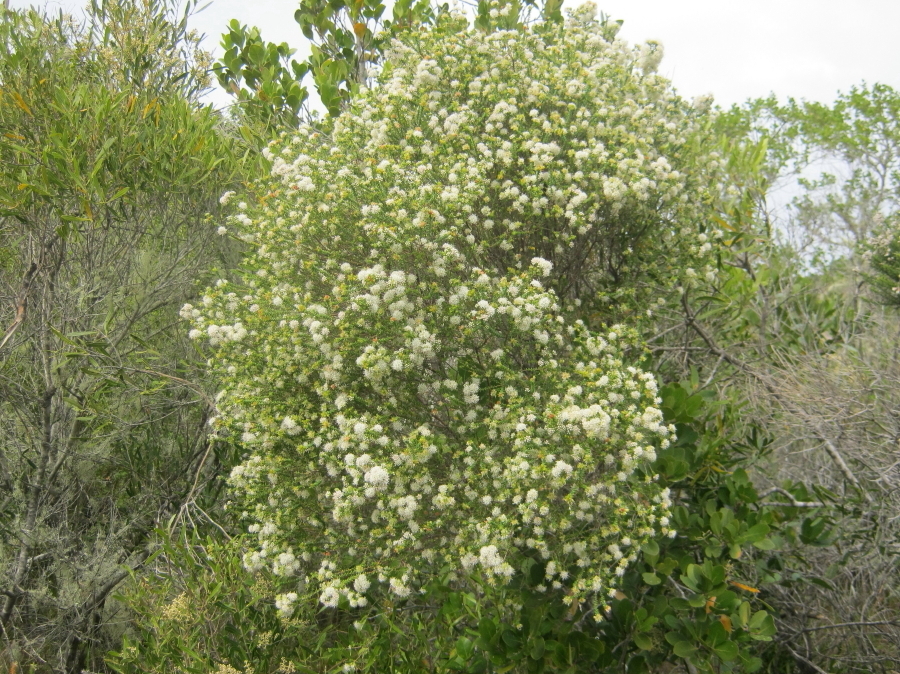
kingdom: Plantae
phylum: Tracheophyta
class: Magnoliopsida
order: Sapindales
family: Rutaceae
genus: Agathosma
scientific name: Agathosma apiculata
